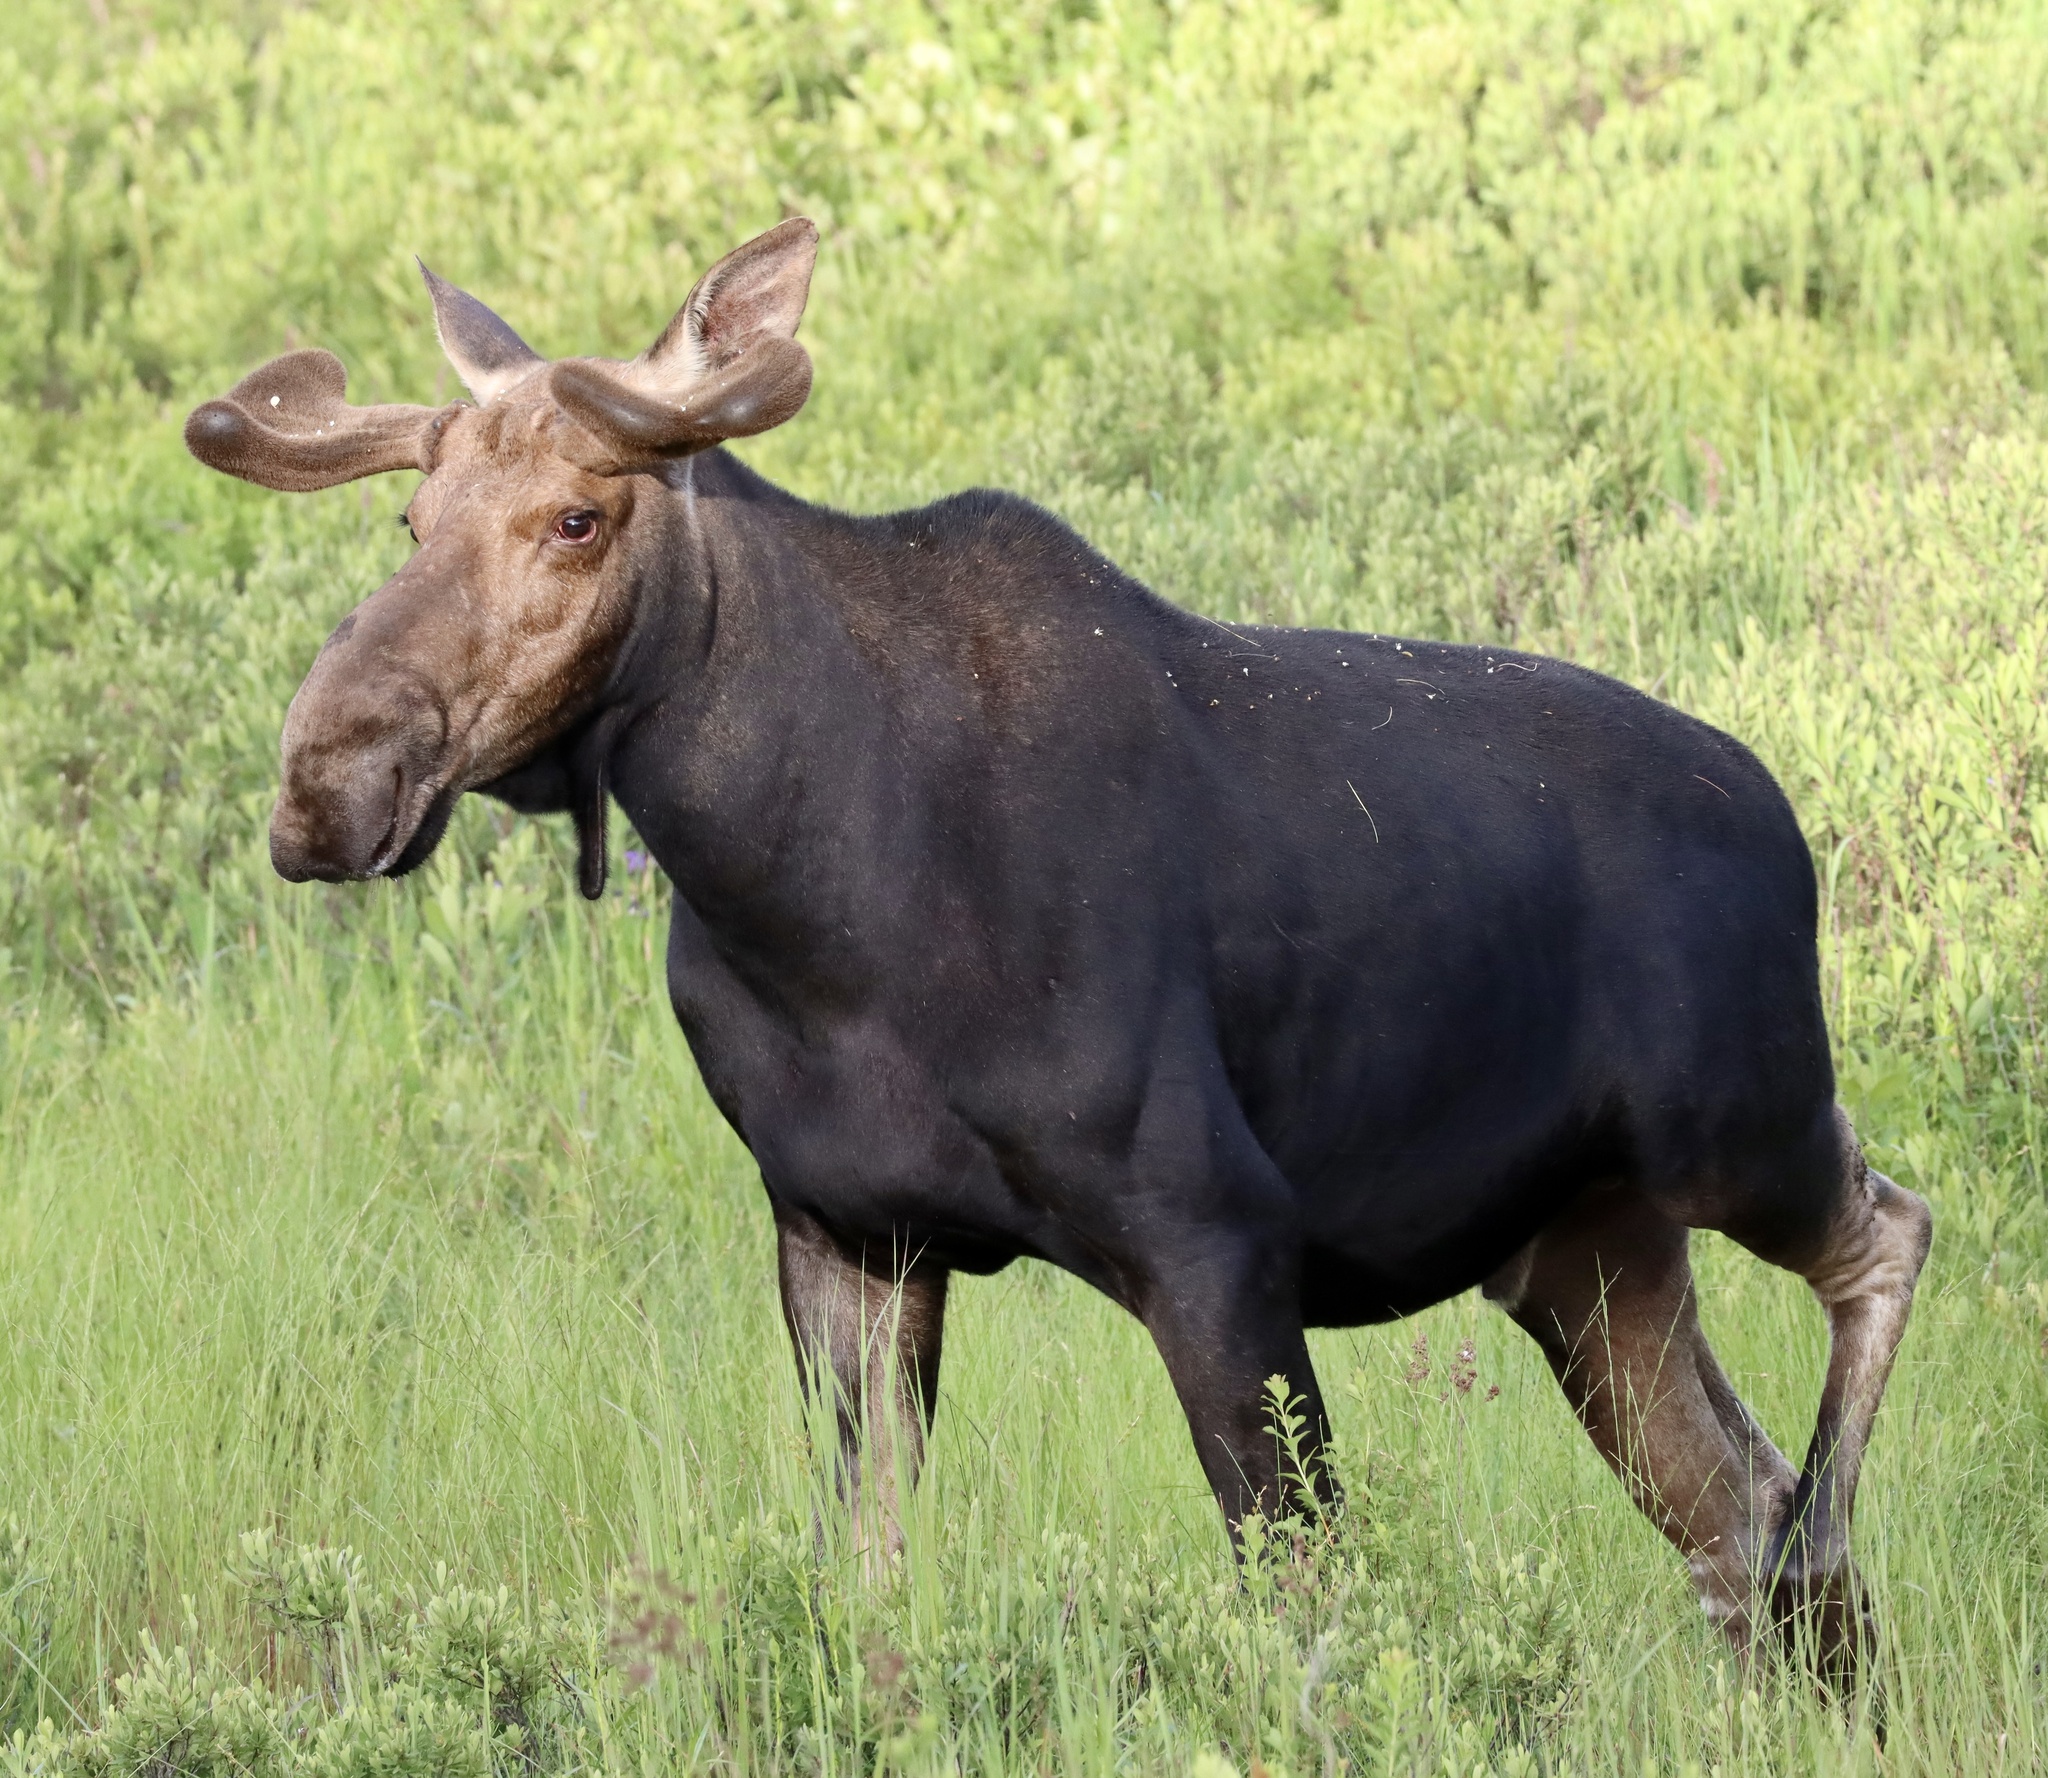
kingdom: Animalia
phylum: Chordata
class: Mammalia
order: Artiodactyla
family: Cervidae
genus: Alces
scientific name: Alces alces
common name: Moose
